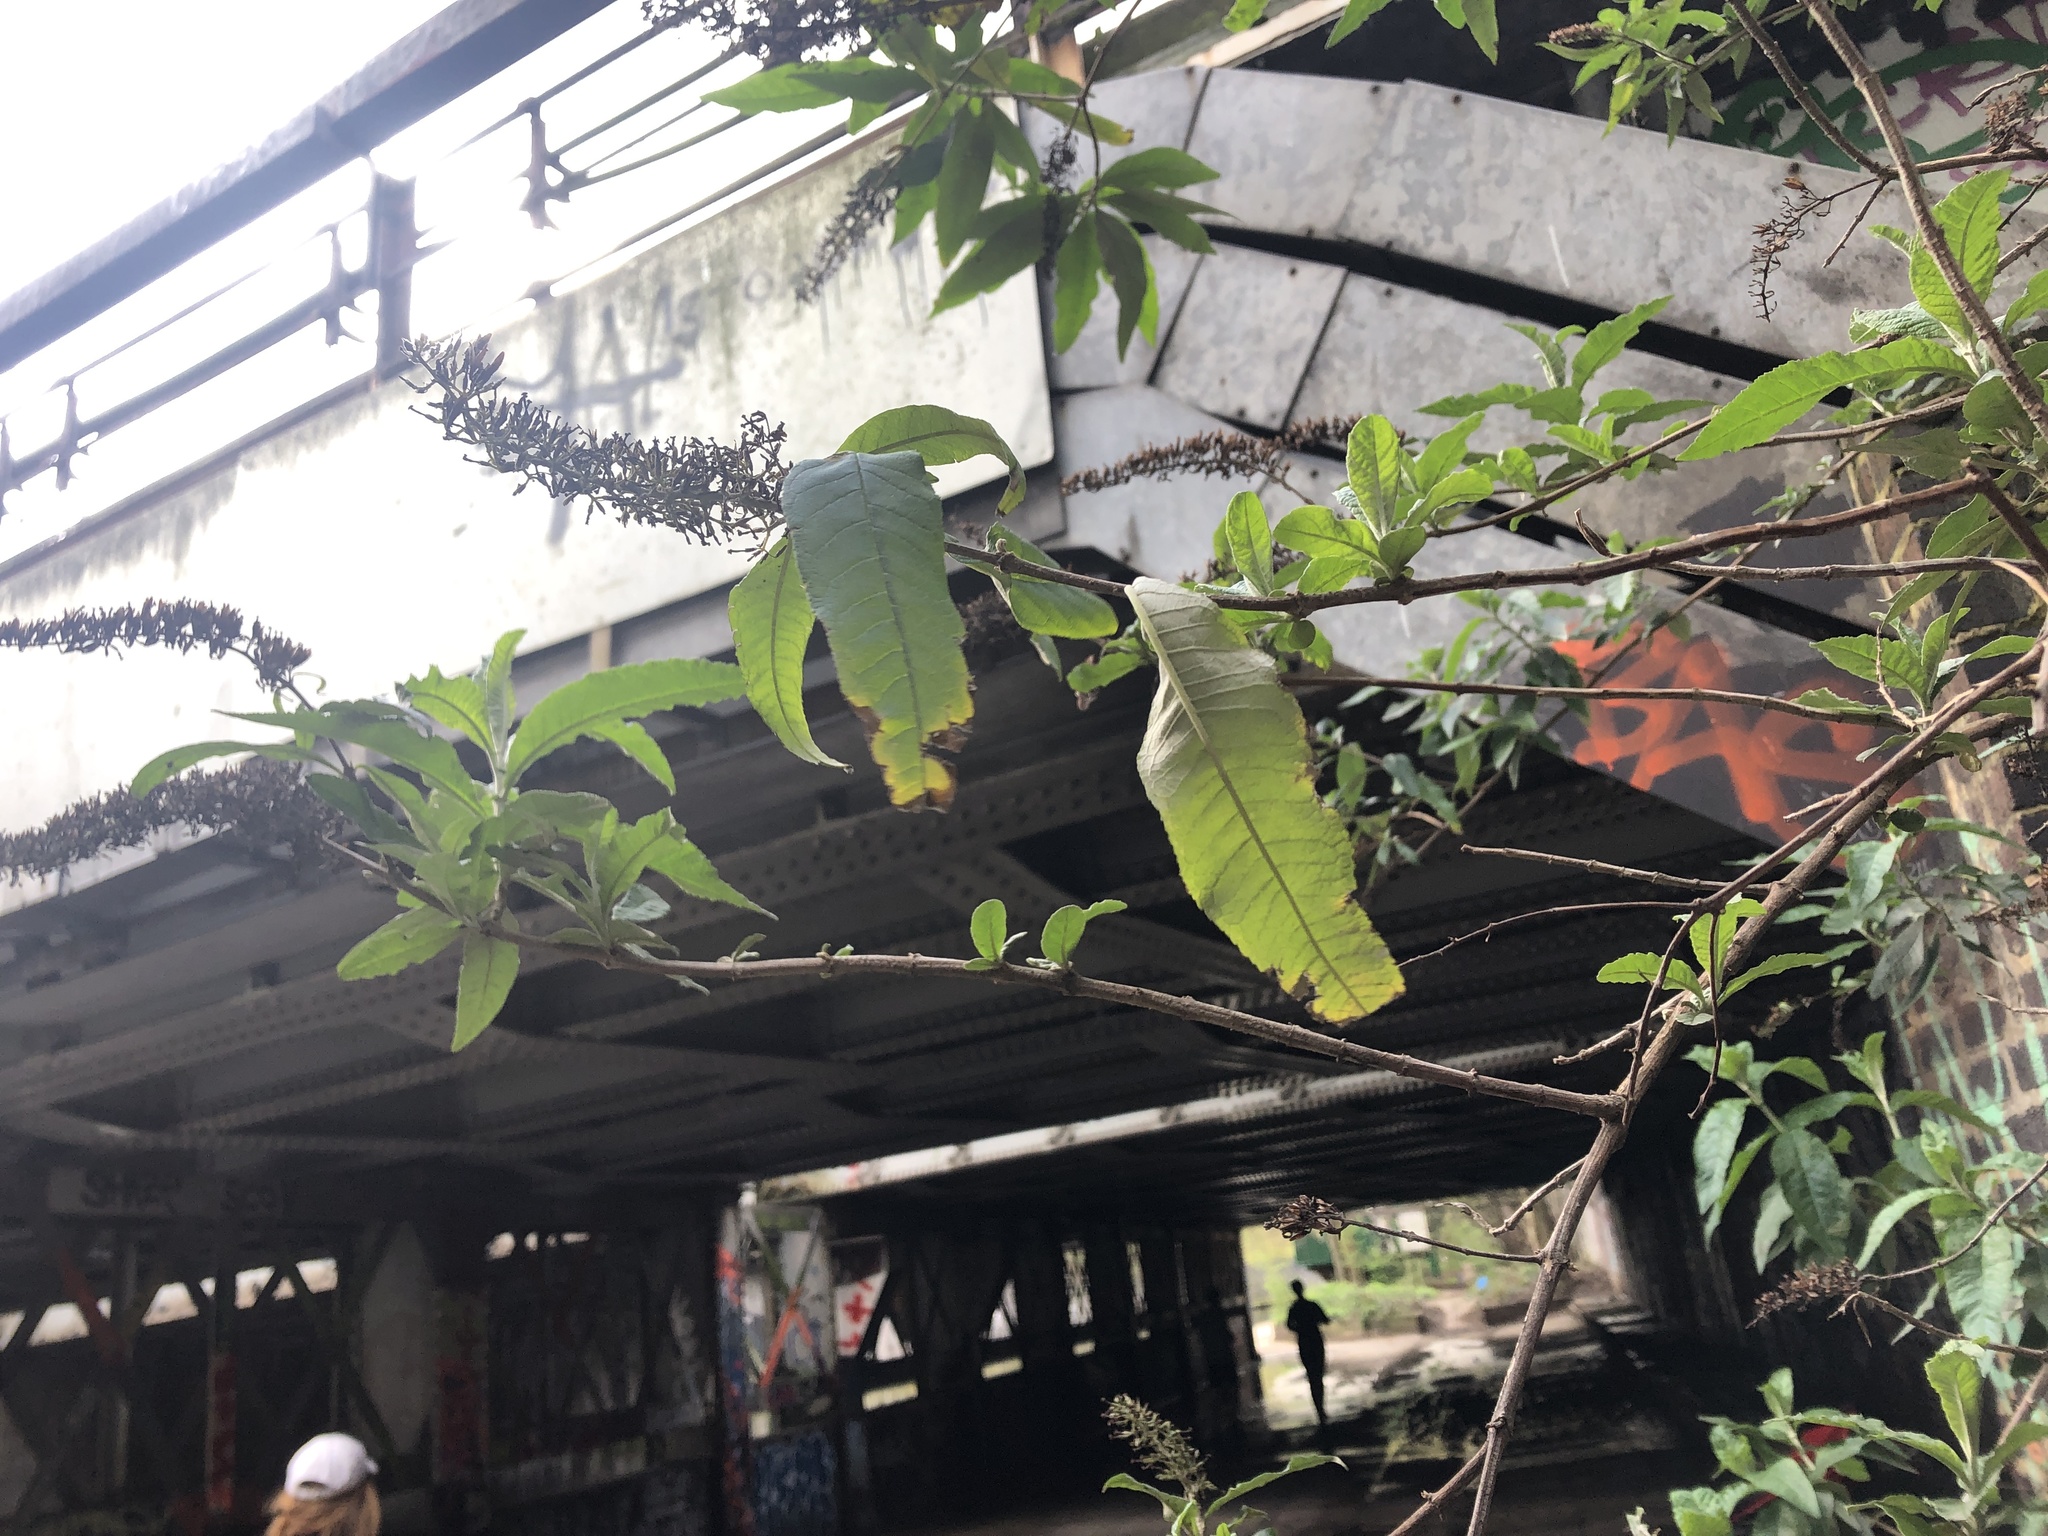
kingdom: Plantae
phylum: Tracheophyta
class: Magnoliopsida
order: Lamiales
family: Scrophulariaceae
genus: Buddleja
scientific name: Buddleja davidii
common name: Butterfly-bush
